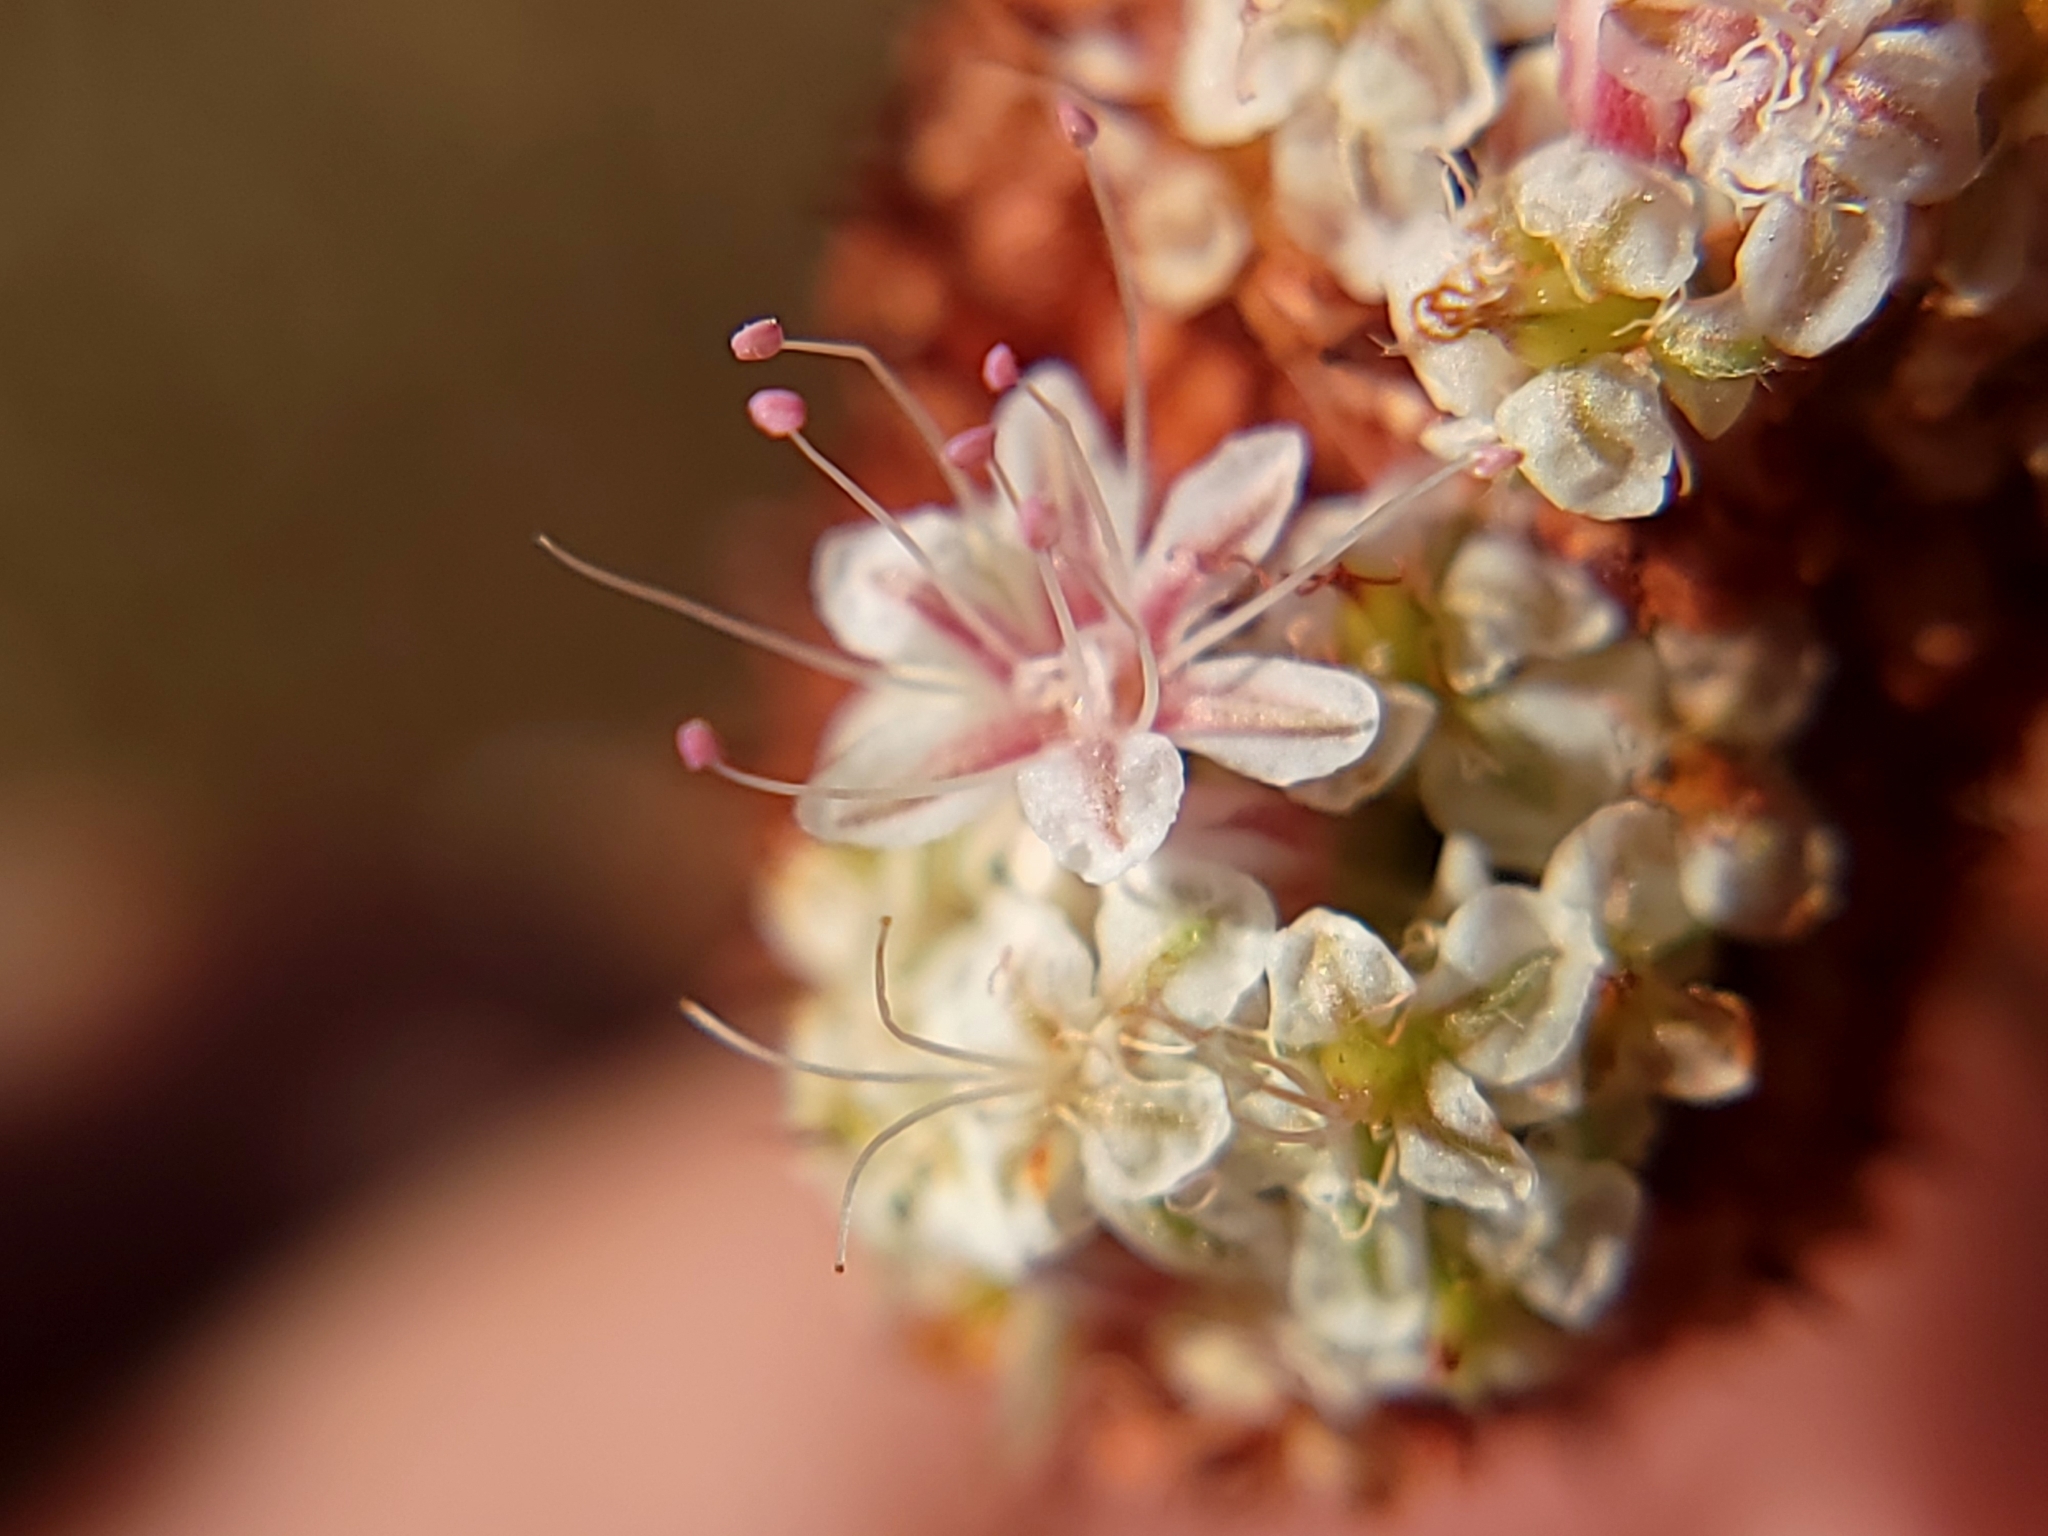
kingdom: Plantae
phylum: Tracheophyta
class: Magnoliopsida
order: Caryophyllales
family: Polygonaceae
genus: Eriogonum
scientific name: Eriogonum fasciculatum
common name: California wild buckwheat
